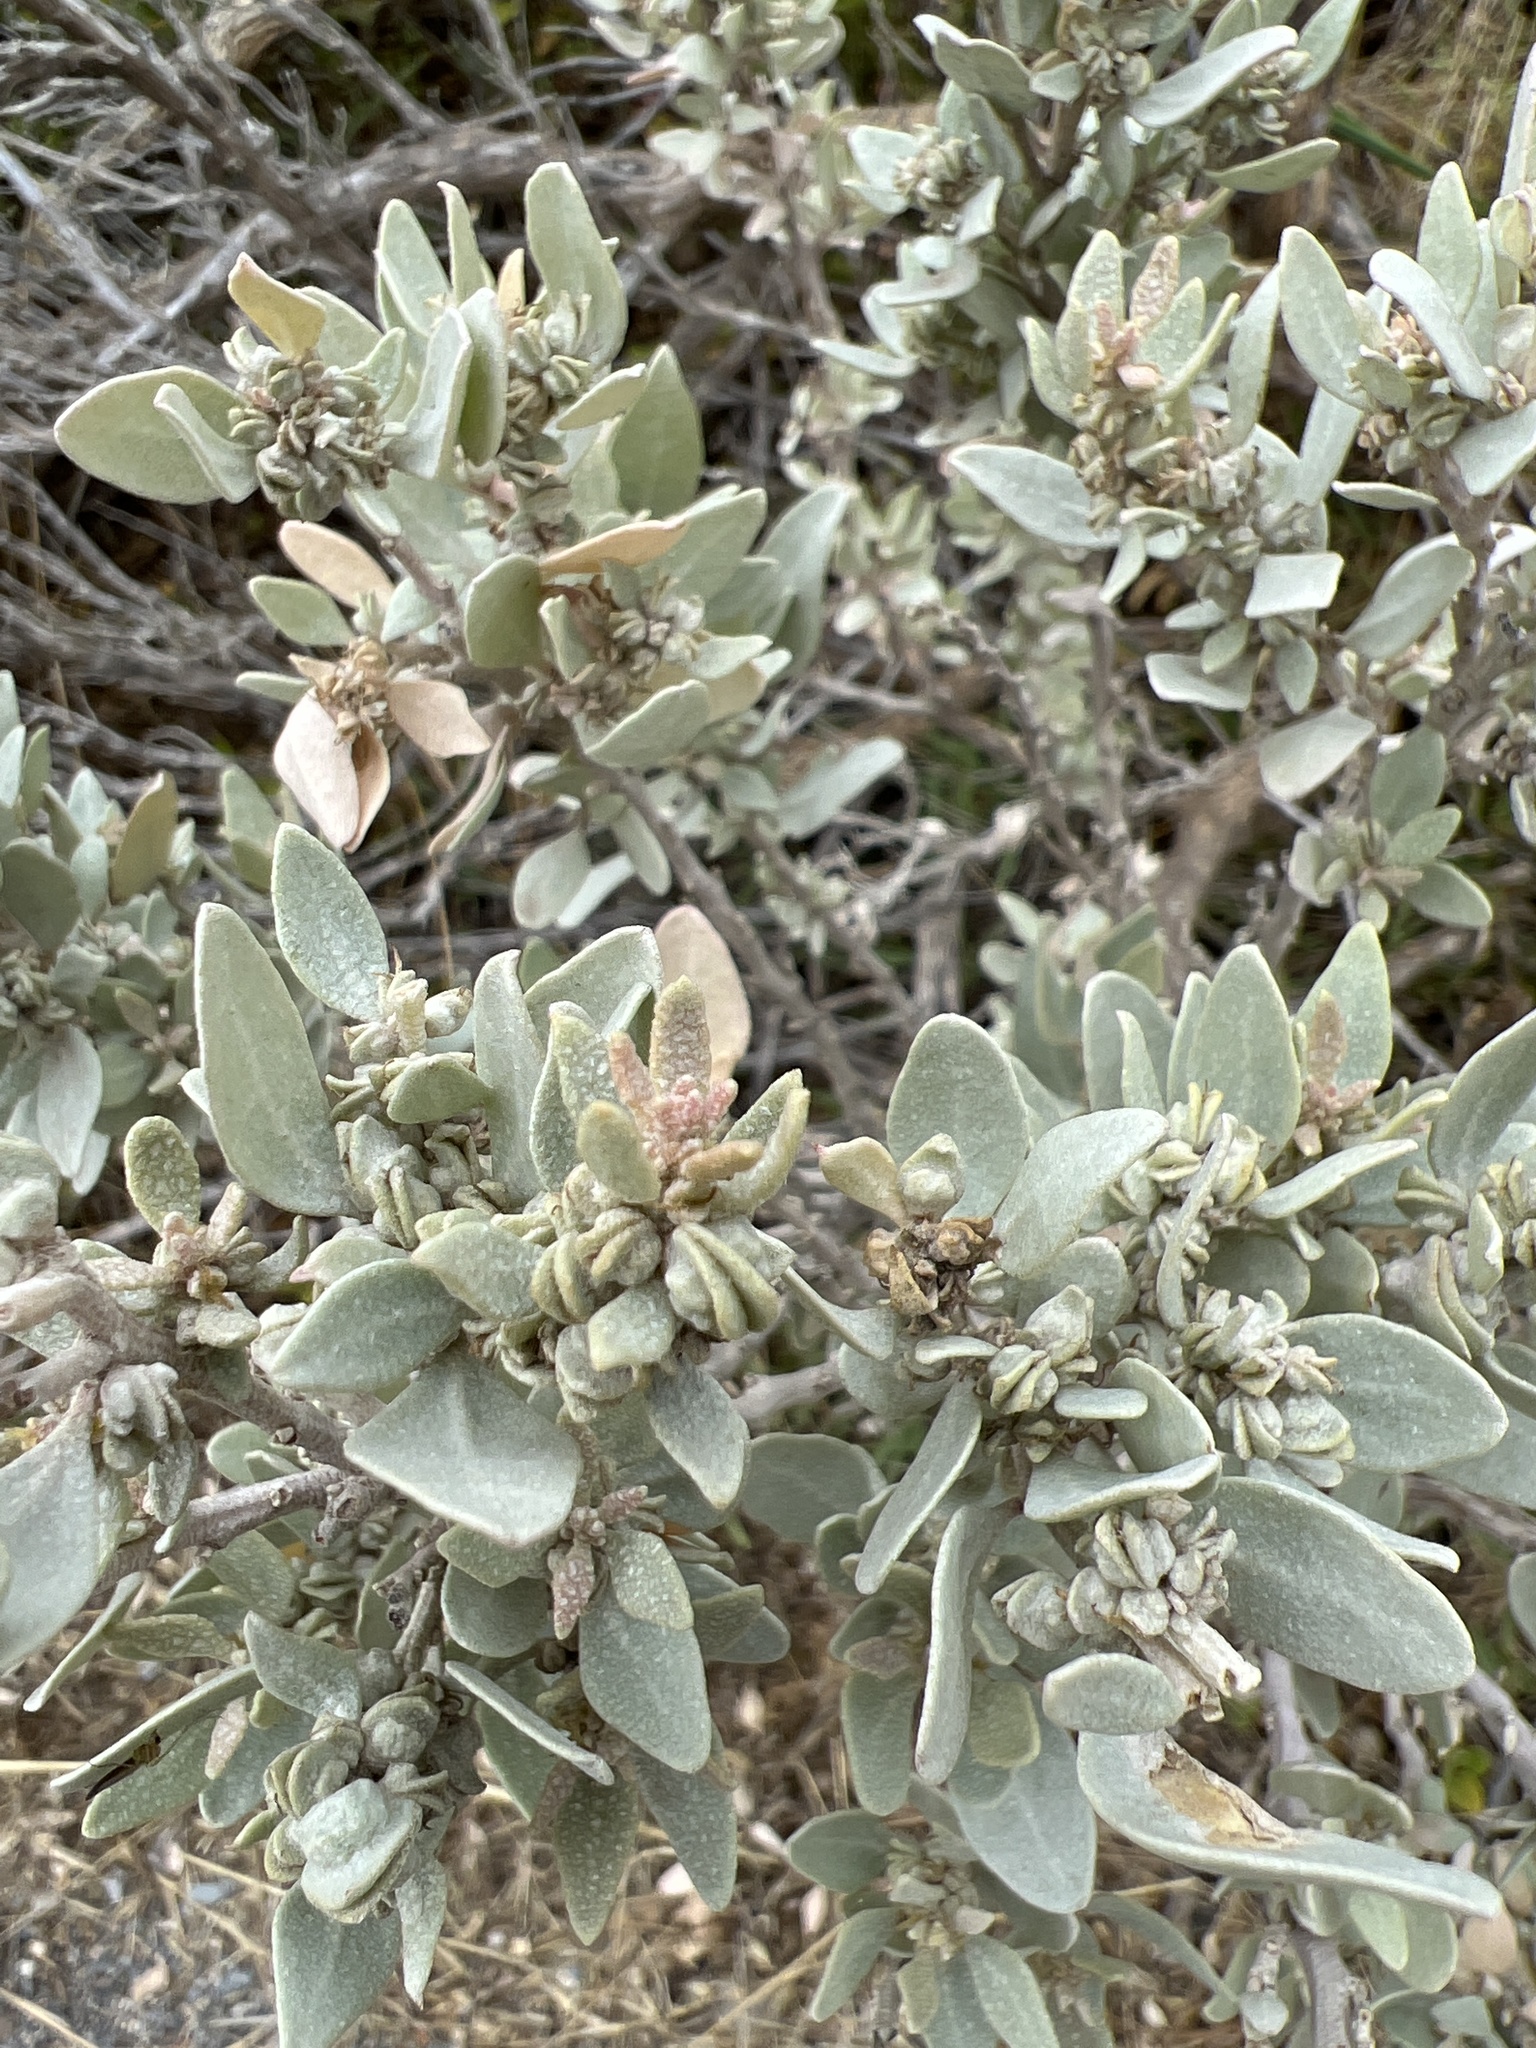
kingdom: Plantae
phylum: Tracheophyta
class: Magnoliopsida
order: Caryophyllales
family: Amaranthaceae
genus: Atriplex
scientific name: Atriplex cinerea
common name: Grey saltbush
